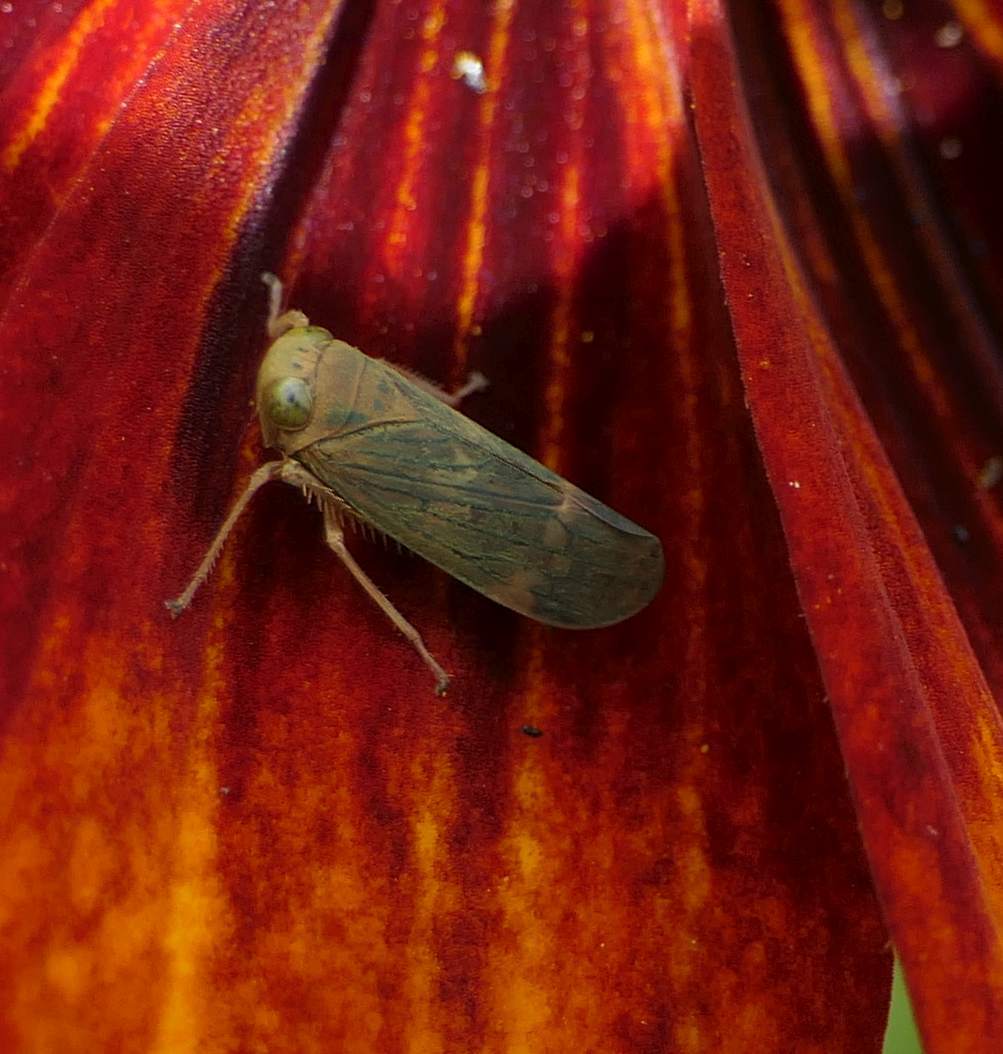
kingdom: Animalia
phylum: Arthropoda
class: Insecta
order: Hemiptera
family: Cicadellidae
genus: Jikradia
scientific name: Jikradia olitoria
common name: Coppery leafhopper
